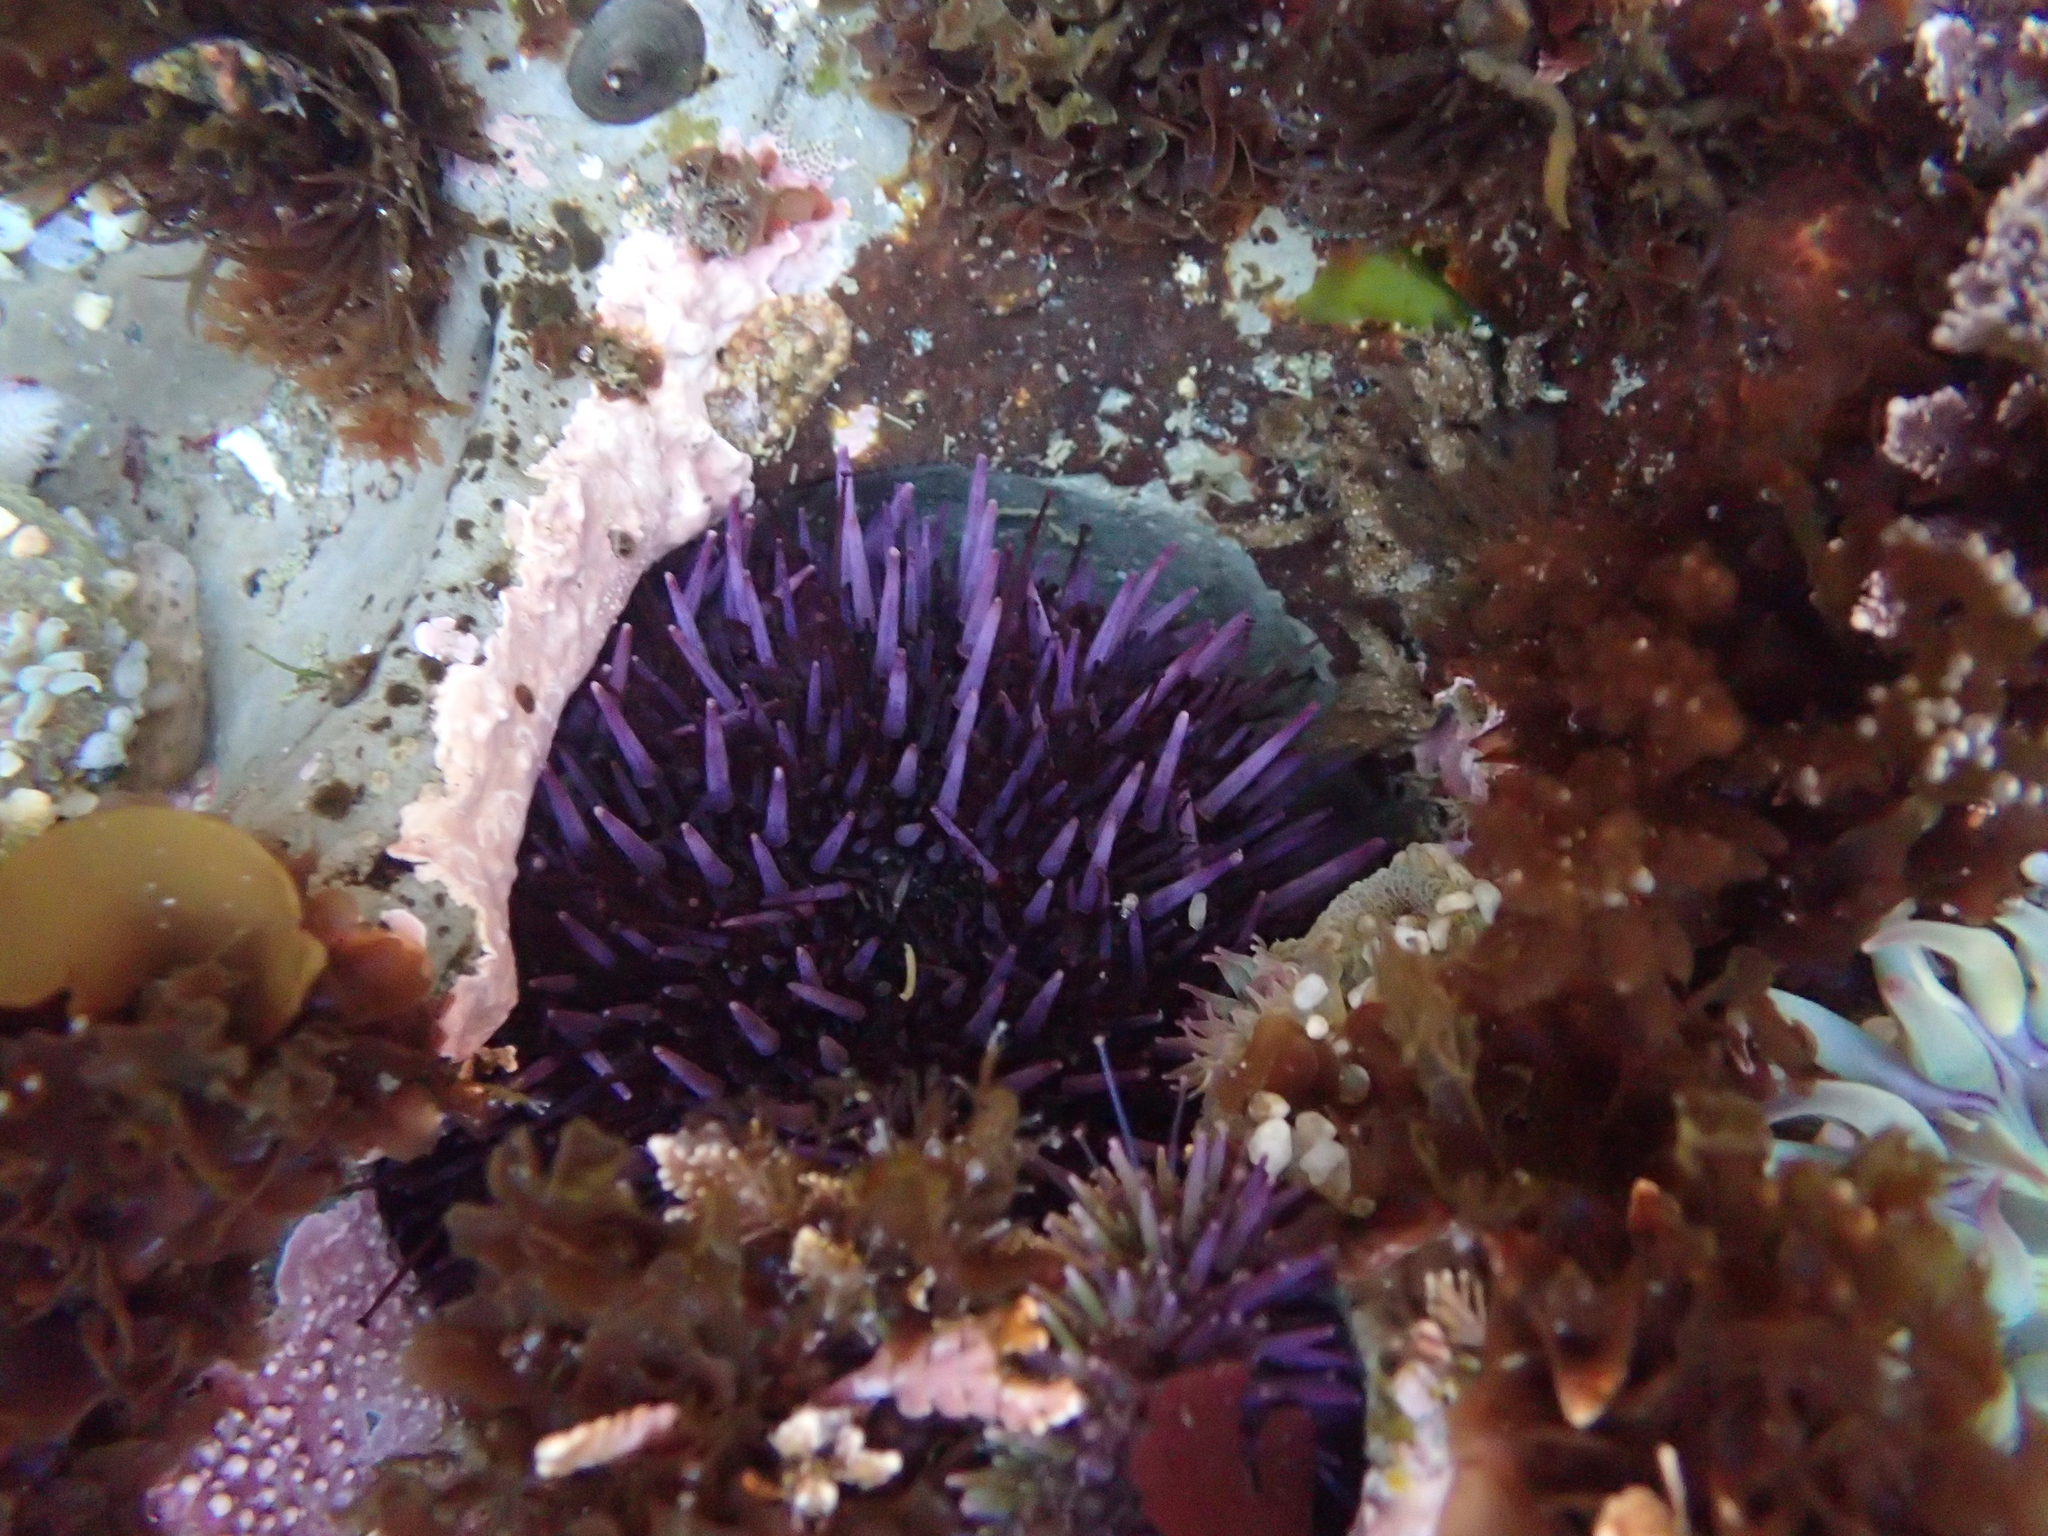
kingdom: Animalia
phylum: Echinodermata
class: Echinoidea
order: Camarodonta
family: Strongylocentrotidae
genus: Strongylocentrotus
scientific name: Strongylocentrotus purpuratus
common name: Purple sea urchin
